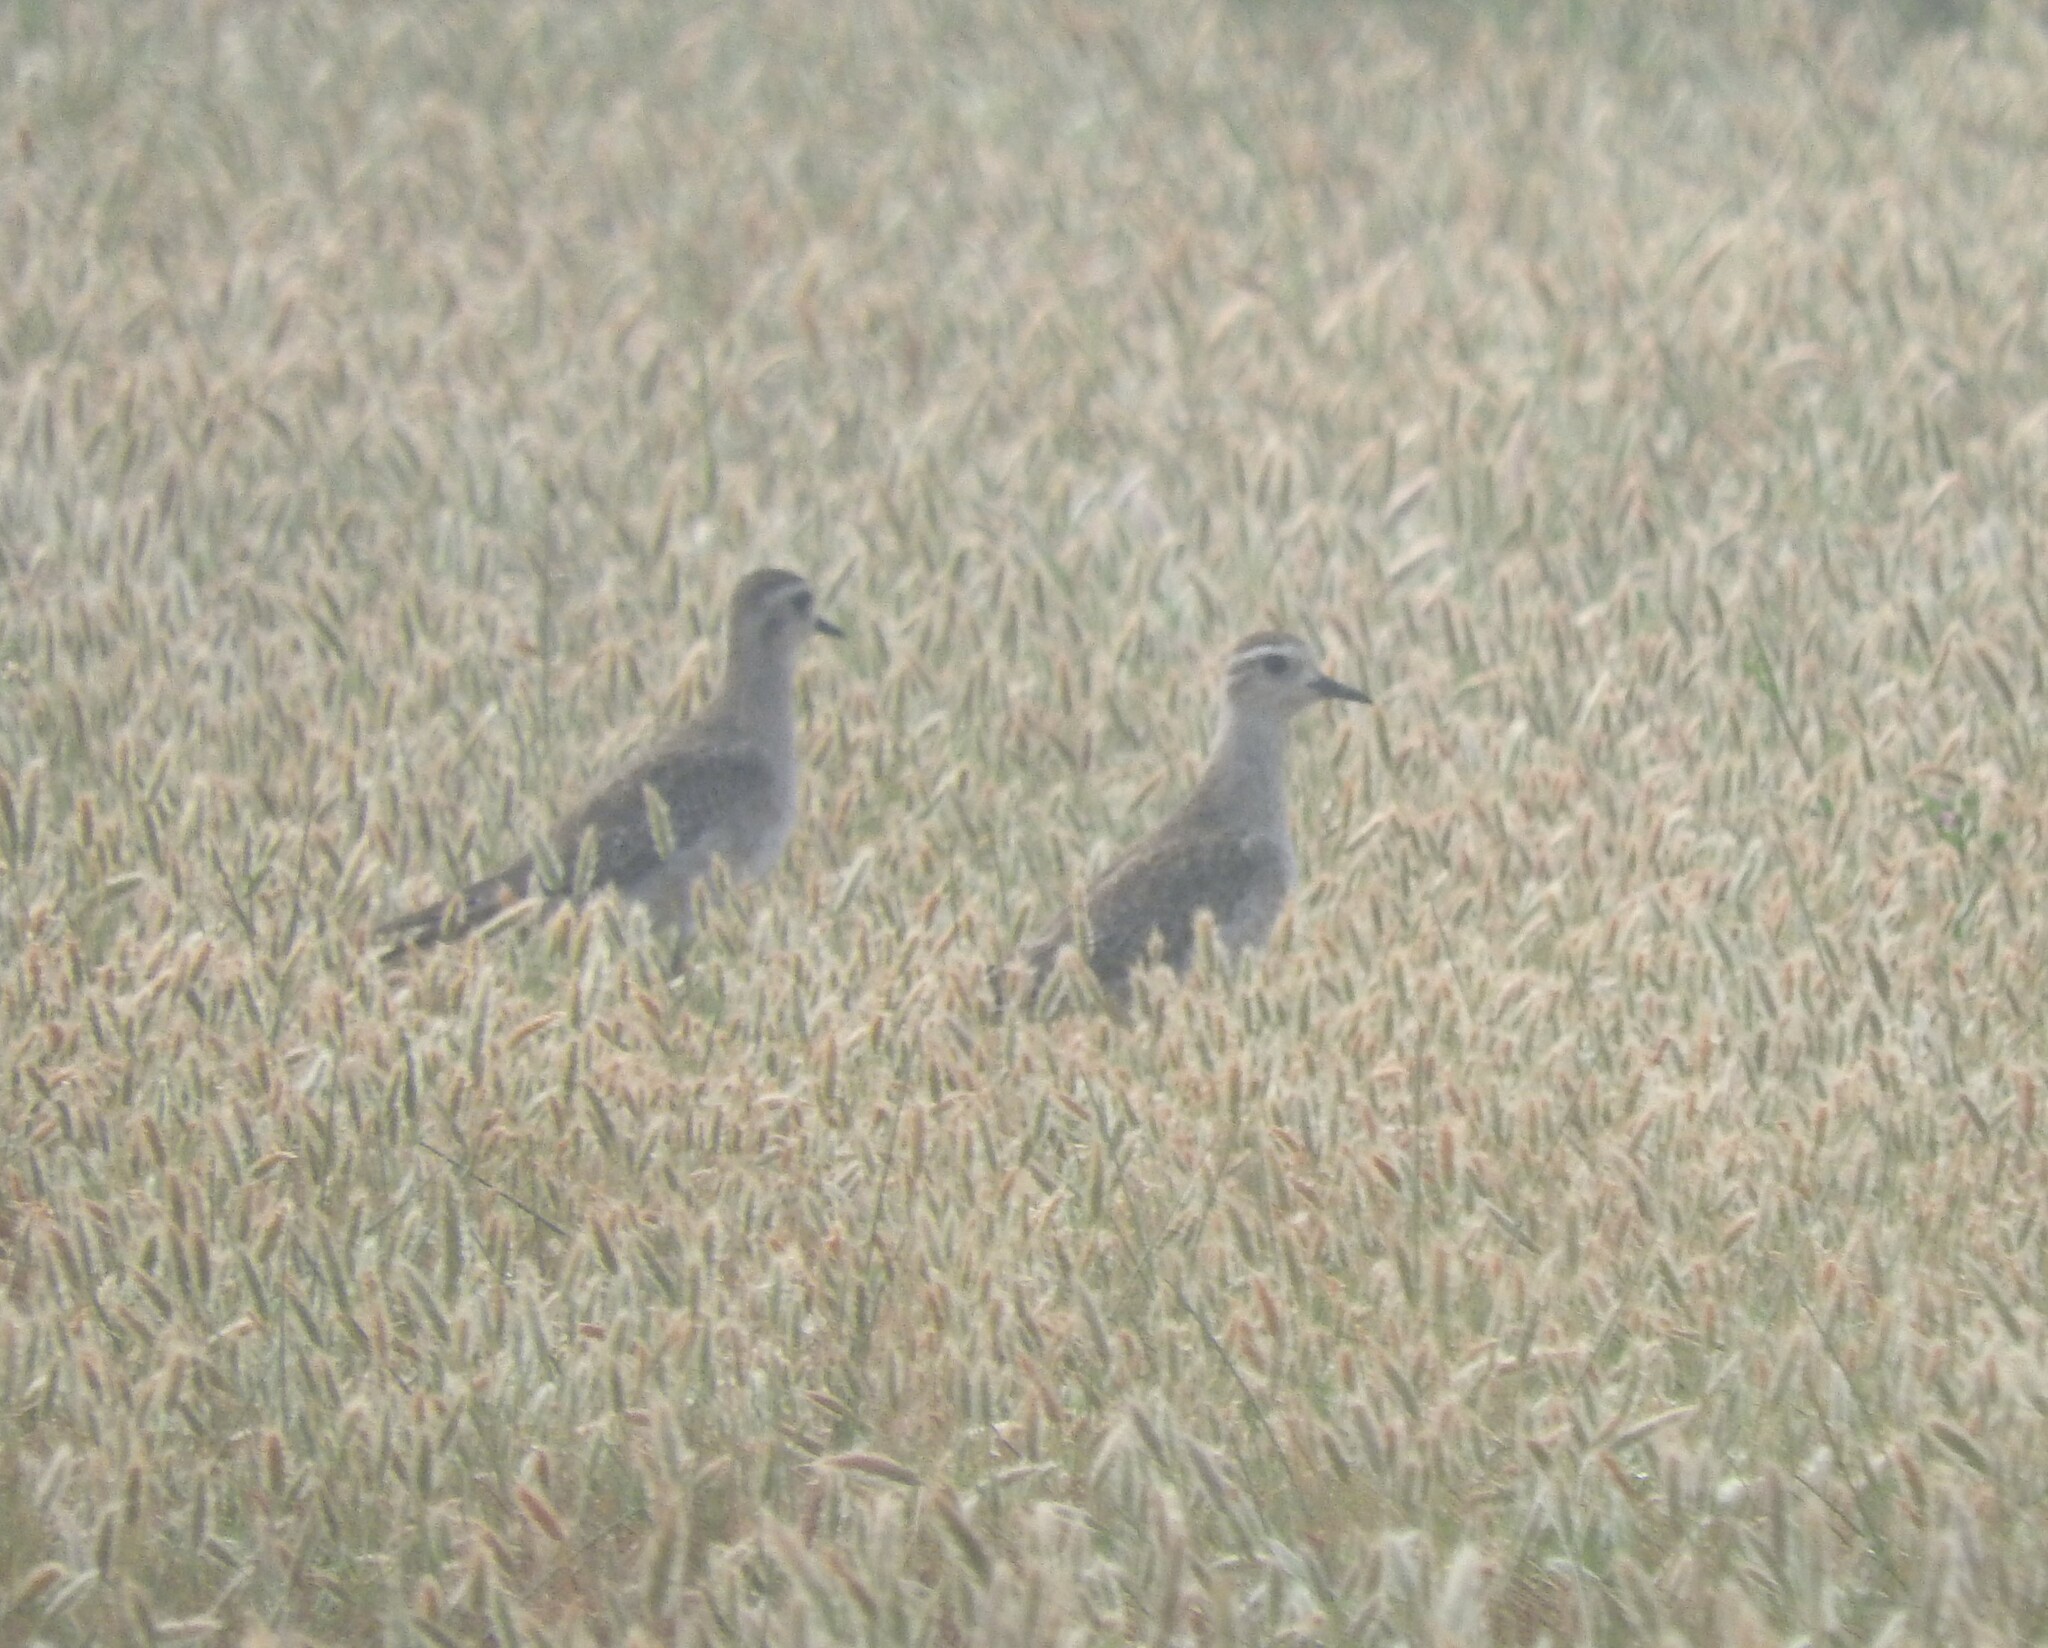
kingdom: Animalia
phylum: Chordata
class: Aves
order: Charadriiformes
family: Charadriidae
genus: Pluvialis
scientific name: Pluvialis dominica
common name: American golden plover
